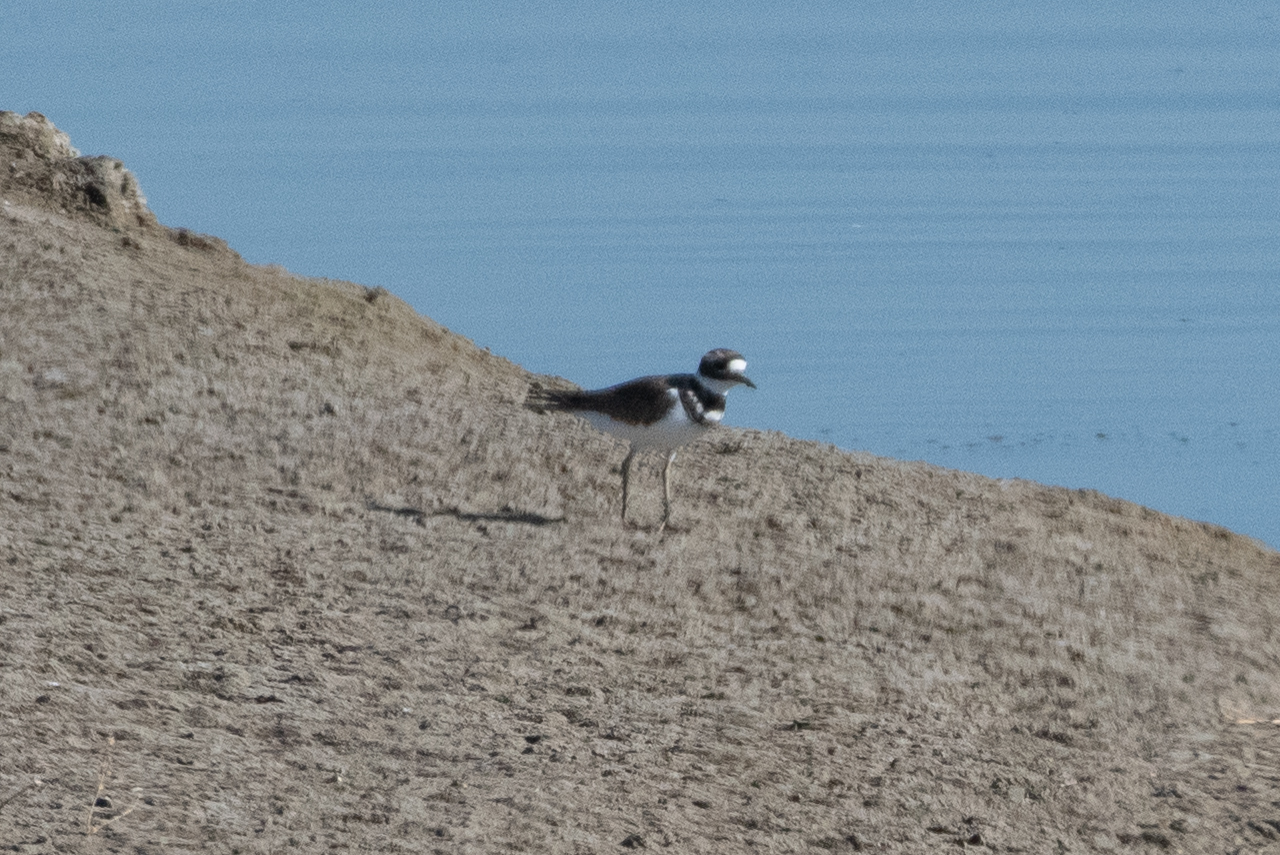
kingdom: Animalia
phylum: Chordata
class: Aves
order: Charadriiformes
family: Charadriidae
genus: Charadrius
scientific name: Charadrius vociferus
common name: Killdeer
